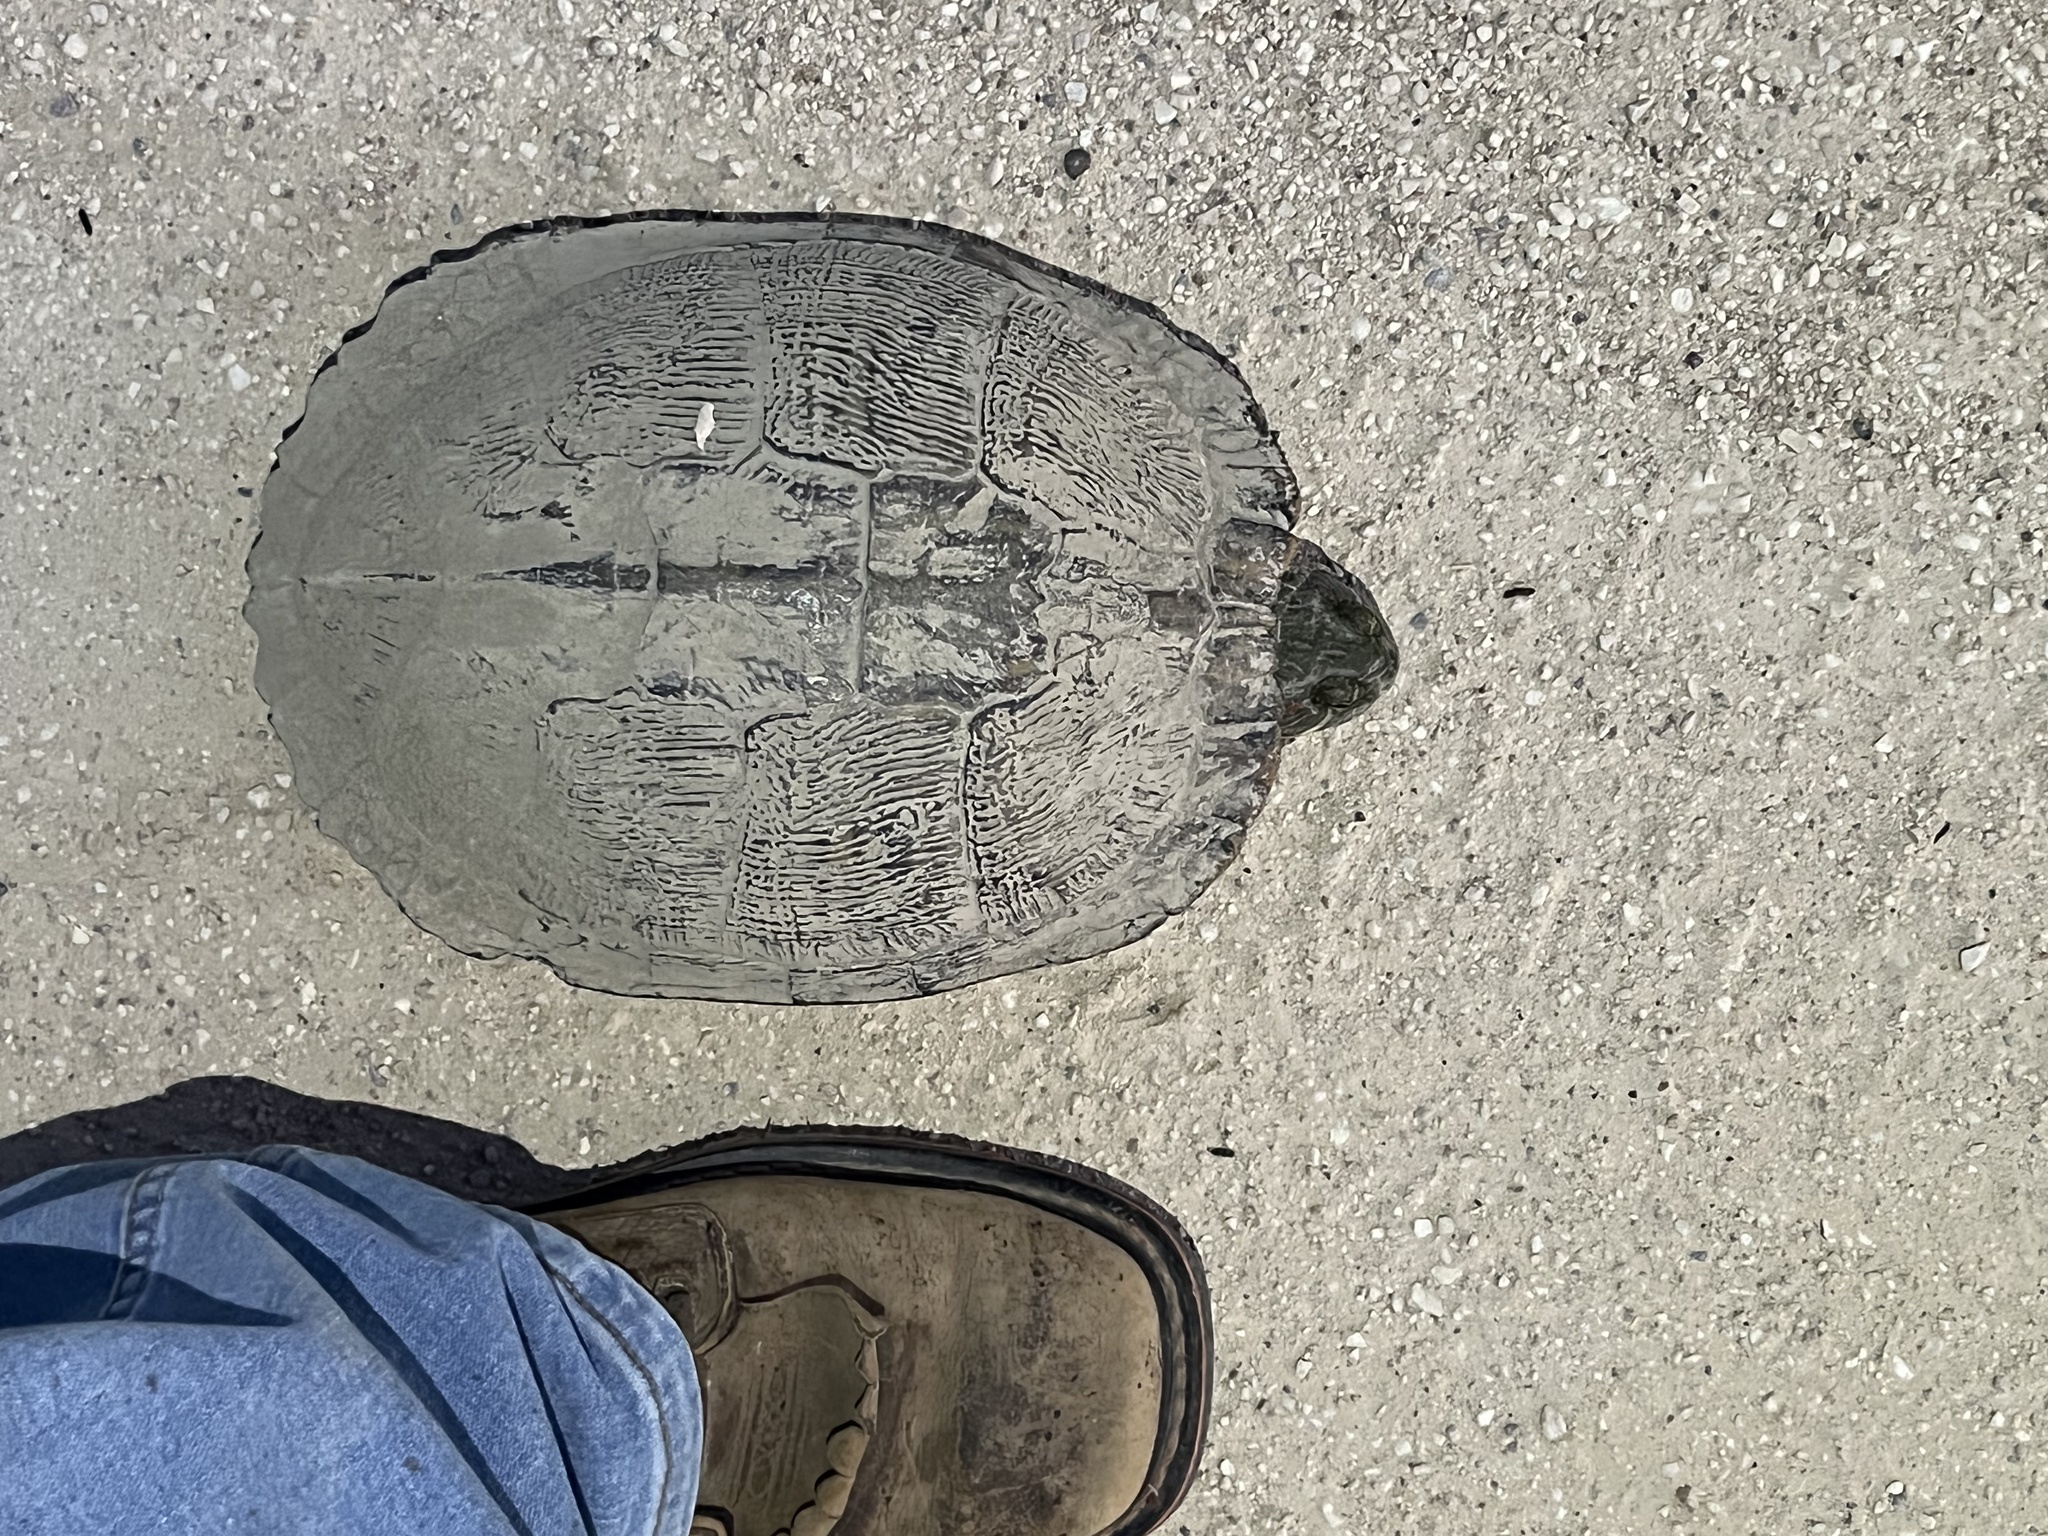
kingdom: Animalia
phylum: Chordata
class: Testudines
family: Emydidae
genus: Trachemys
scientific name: Trachemys scripta
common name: Slider
